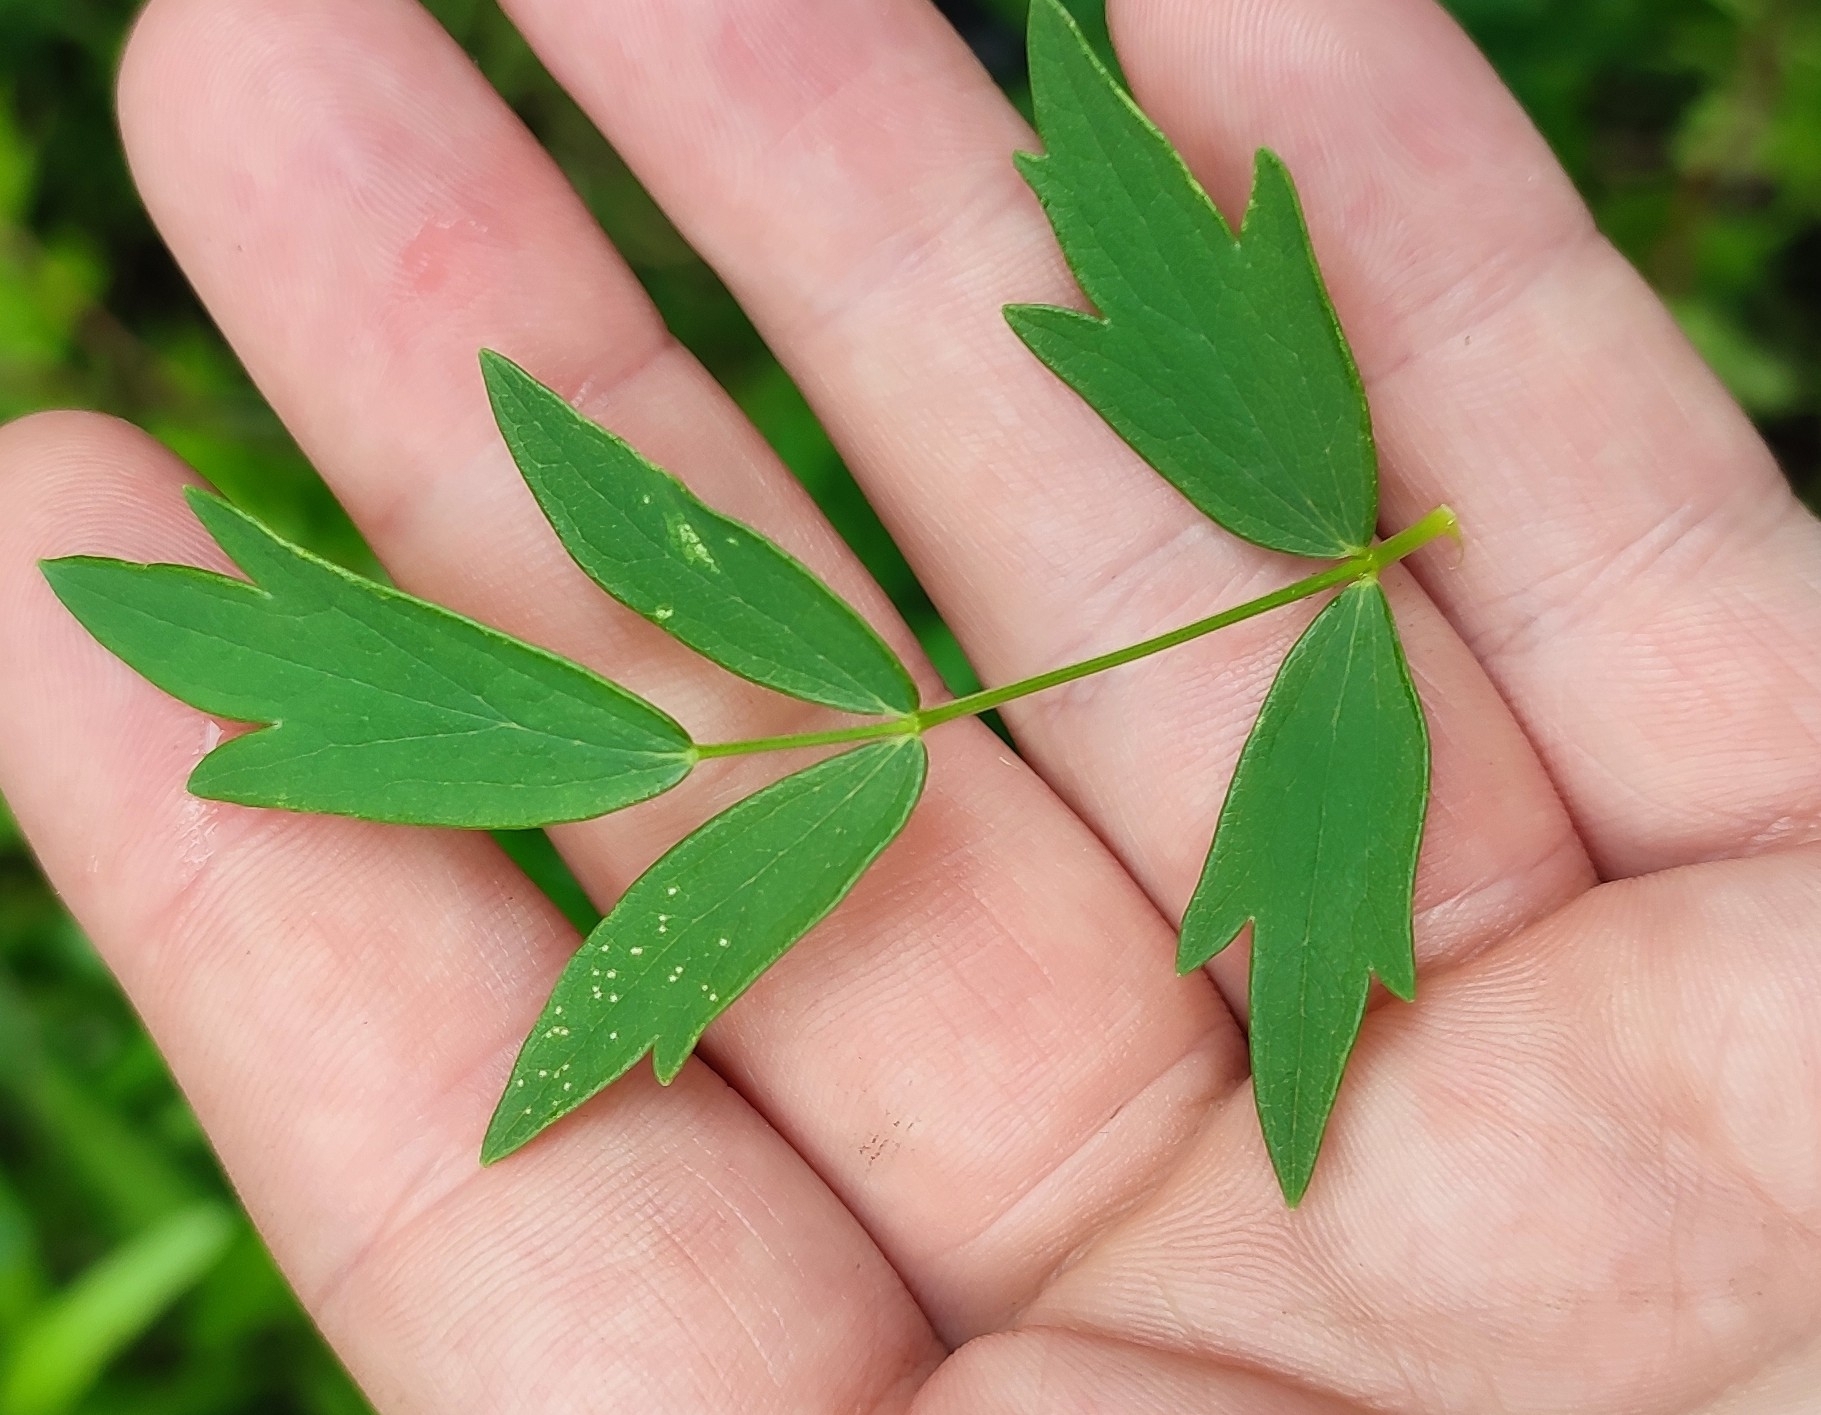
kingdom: Plantae
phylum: Tracheophyta
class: Magnoliopsida
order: Ranunculales
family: Ranunculaceae
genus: Thalictrum
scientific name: Thalictrum simplex
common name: Small meadow-rue
